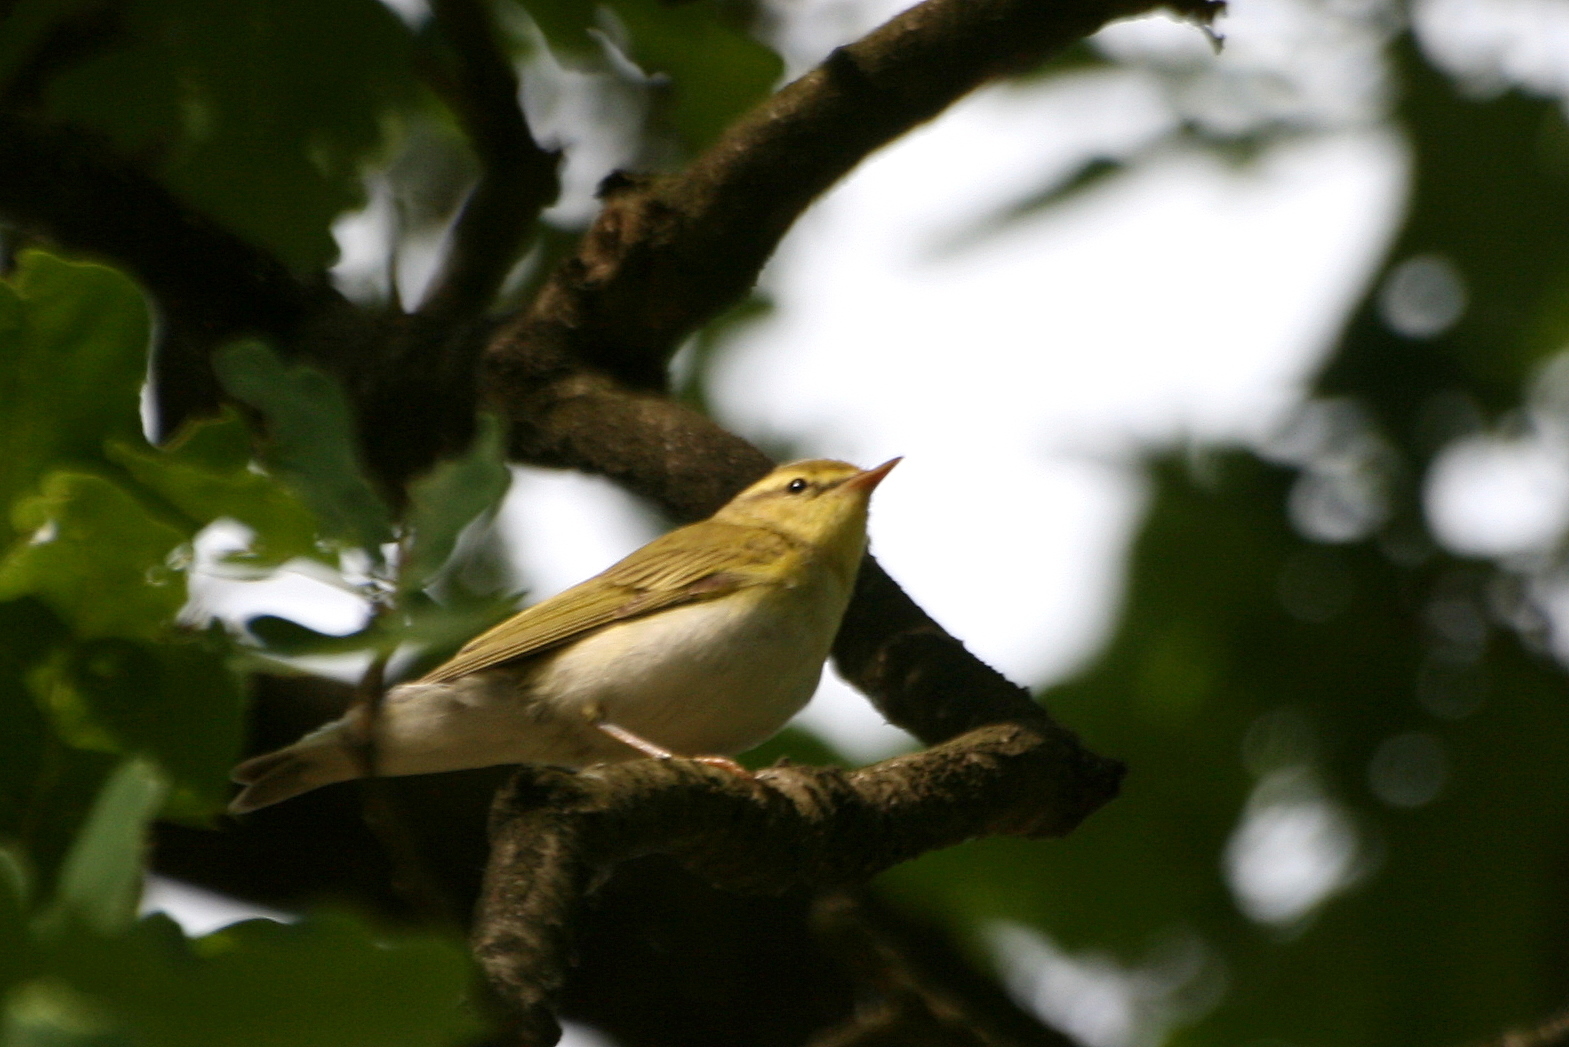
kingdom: Animalia
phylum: Chordata
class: Aves
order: Passeriformes
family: Phylloscopidae
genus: Phylloscopus
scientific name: Phylloscopus sibillatrix
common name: Wood warbler
